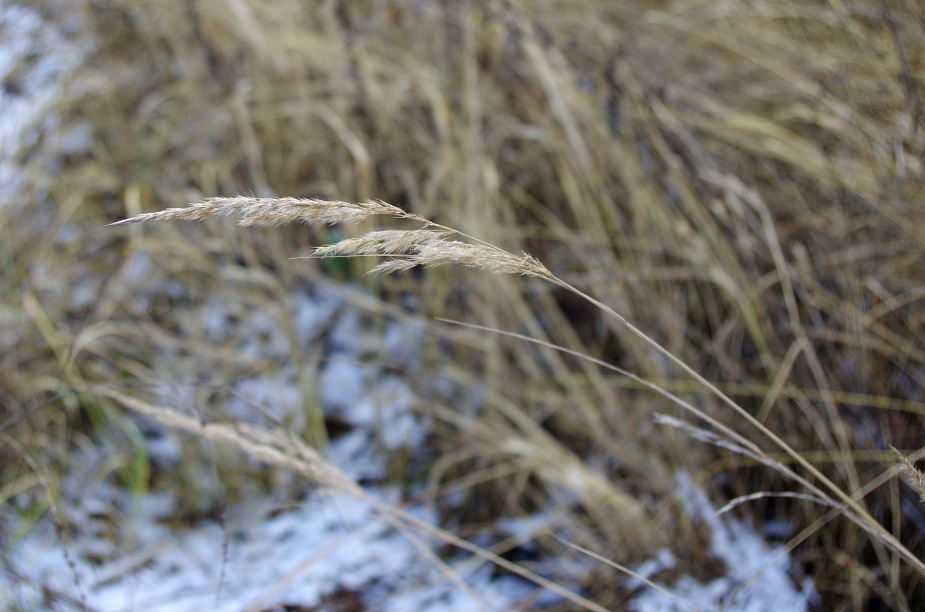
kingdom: Plantae
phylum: Tracheophyta
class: Liliopsida
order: Poales
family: Poaceae
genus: Calamagrostis
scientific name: Calamagrostis epigejos
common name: Wood small-reed
